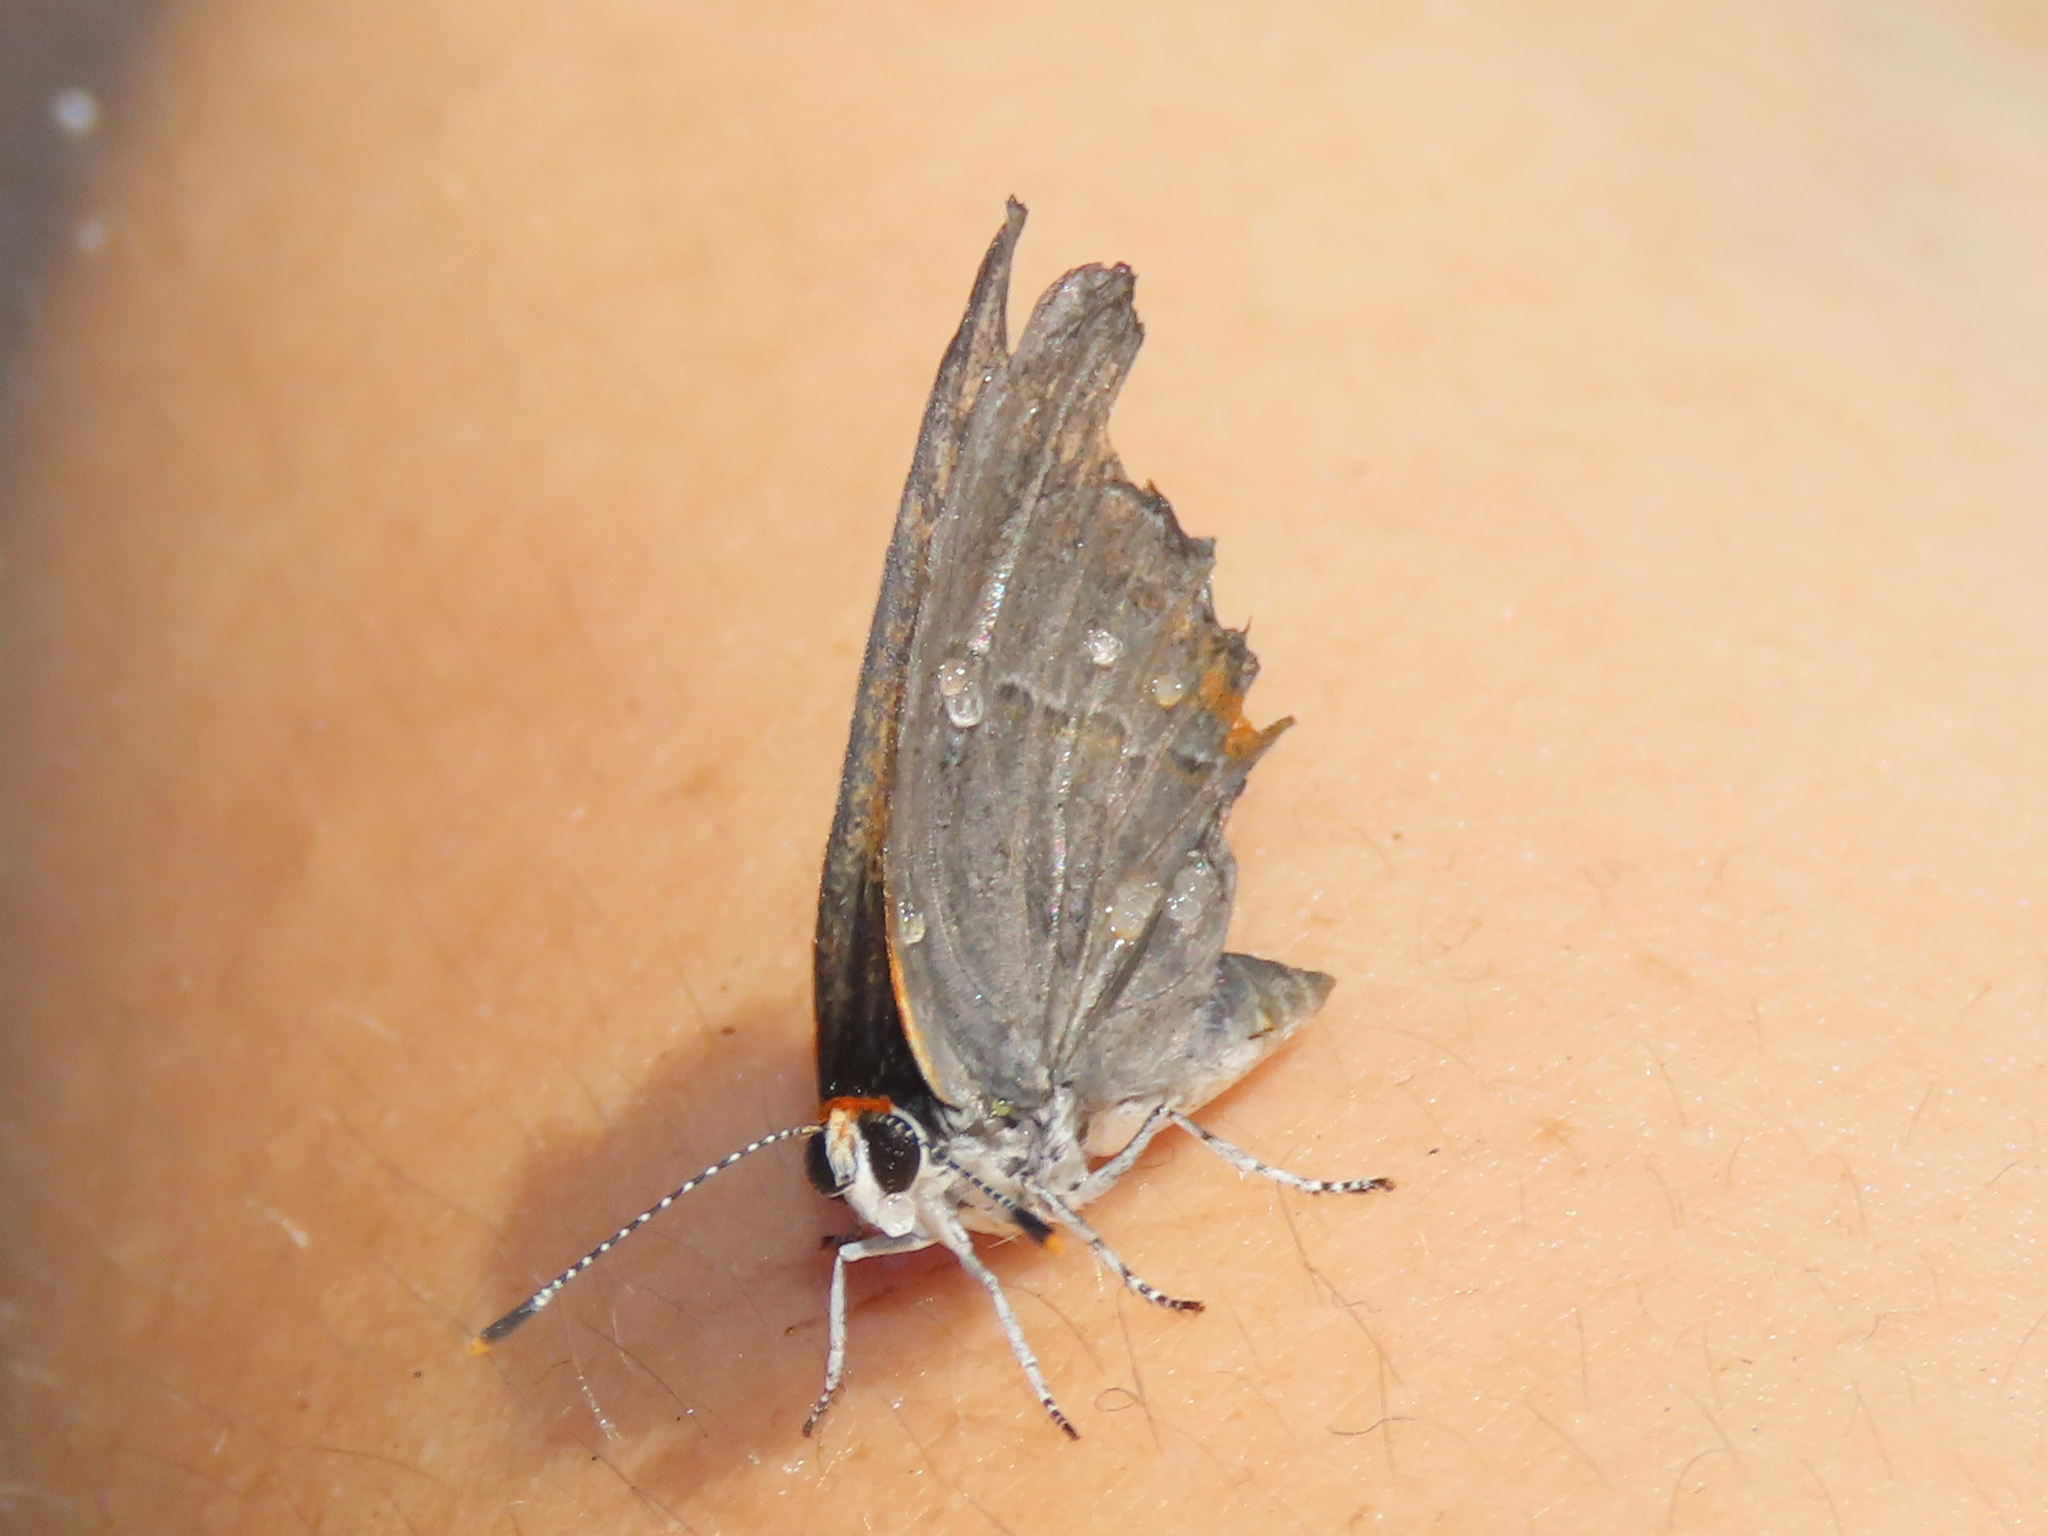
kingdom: Animalia
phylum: Arthropoda
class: Insecta
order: Lepidoptera
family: Lycaenidae
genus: Strymon
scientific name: Strymon melinus
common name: Gray hairstreak
